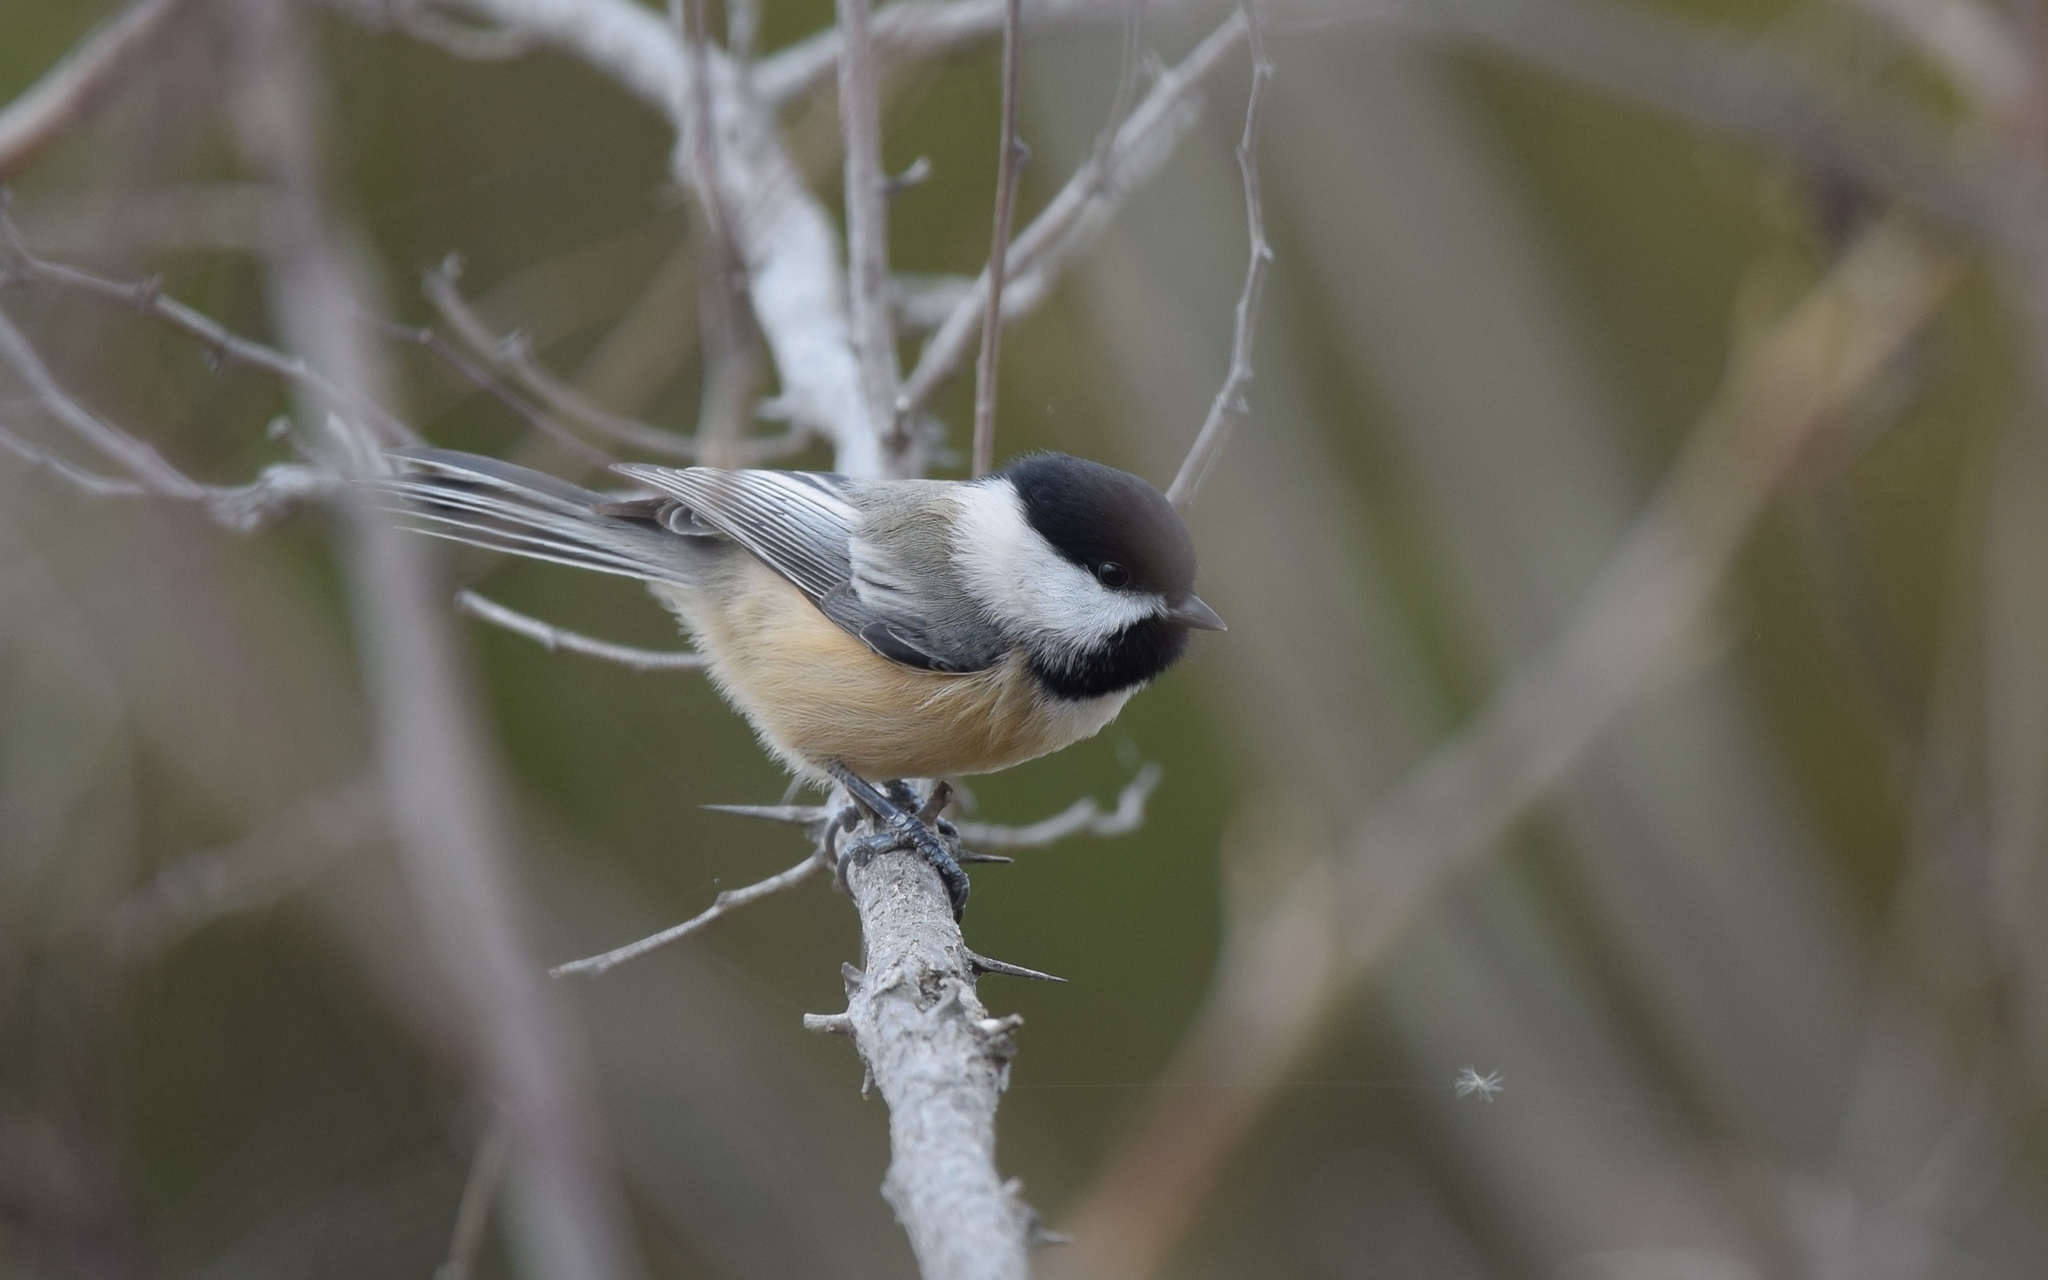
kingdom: Animalia
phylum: Chordata
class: Aves
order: Passeriformes
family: Paridae
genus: Poecile
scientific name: Poecile atricapillus
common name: Black-capped chickadee
